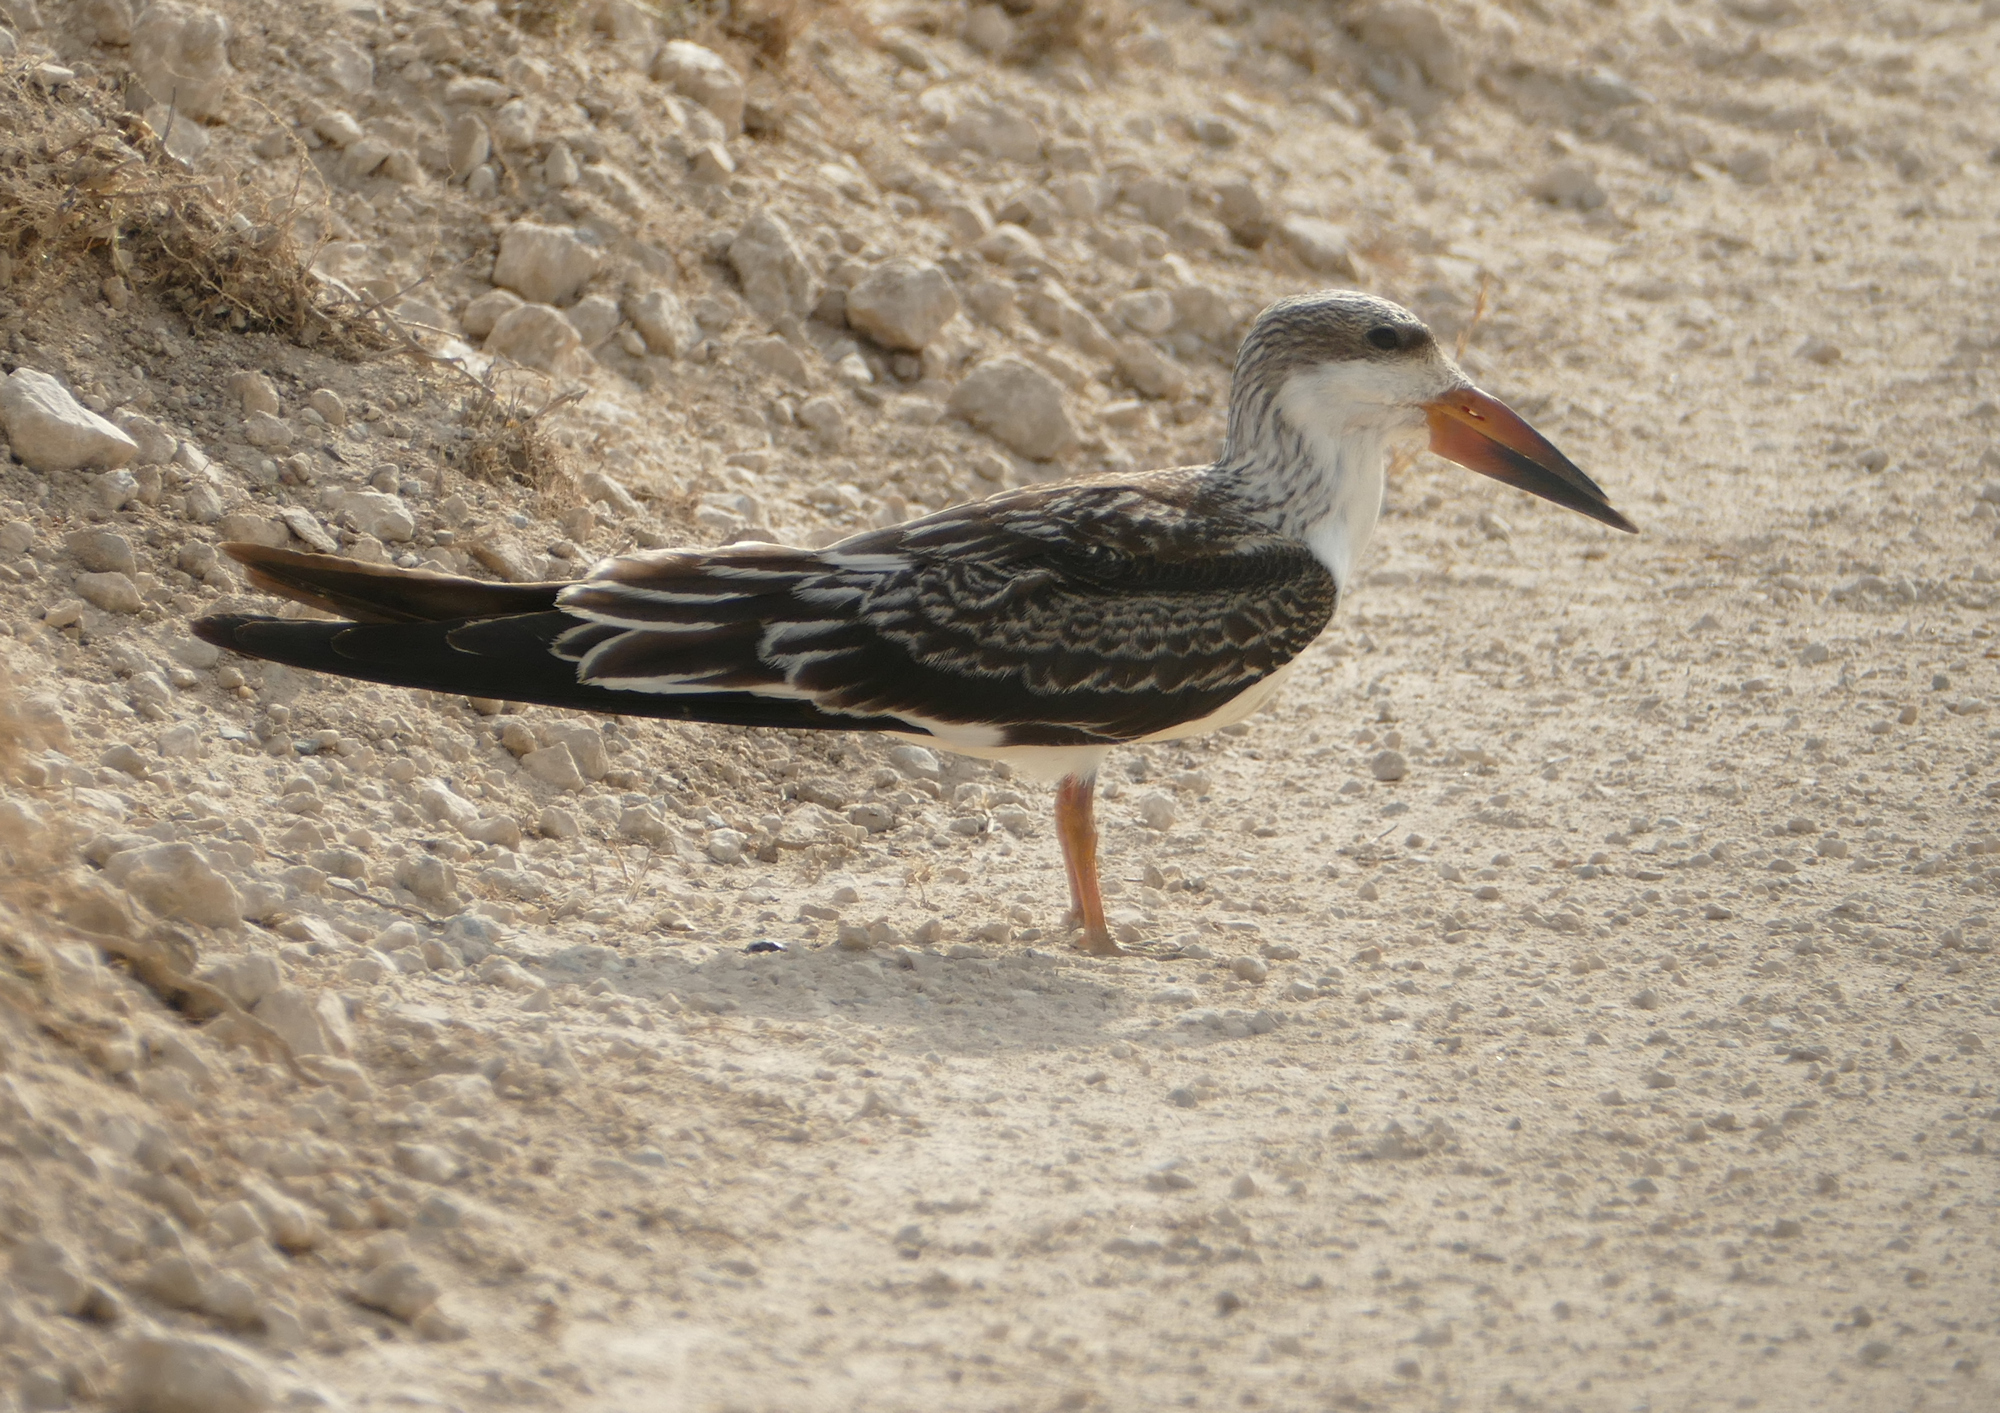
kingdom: Animalia
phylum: Chordata
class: Aves
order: Charadriiformes
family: Laridae
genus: Rynchops
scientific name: Rynchops niger
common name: Black skimmer
